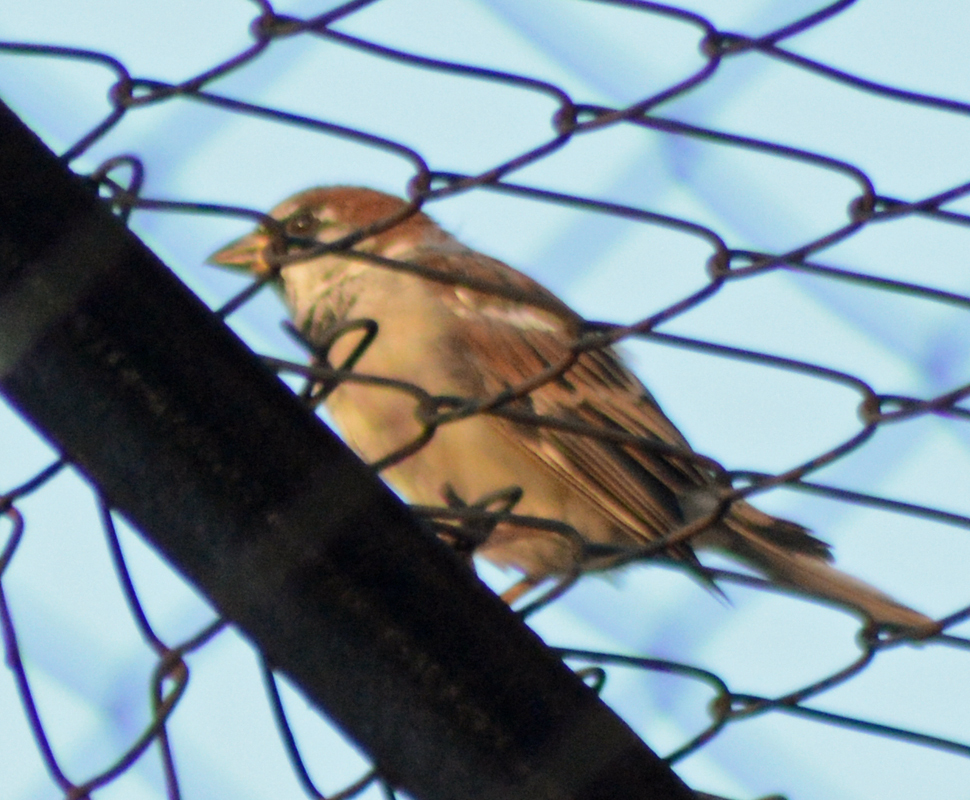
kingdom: Animalia
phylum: Chordata
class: Aves
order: Passeriformes
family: Passeridae
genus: Passer
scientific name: Passer domesticus
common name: House sparrow
